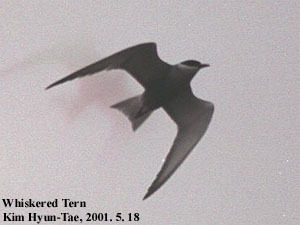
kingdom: Animalia
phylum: Chordata
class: Aves
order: Charadriiformes
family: Laridae
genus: Chlidonias
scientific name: Chlidonias hybrida
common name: Whiskered tern
